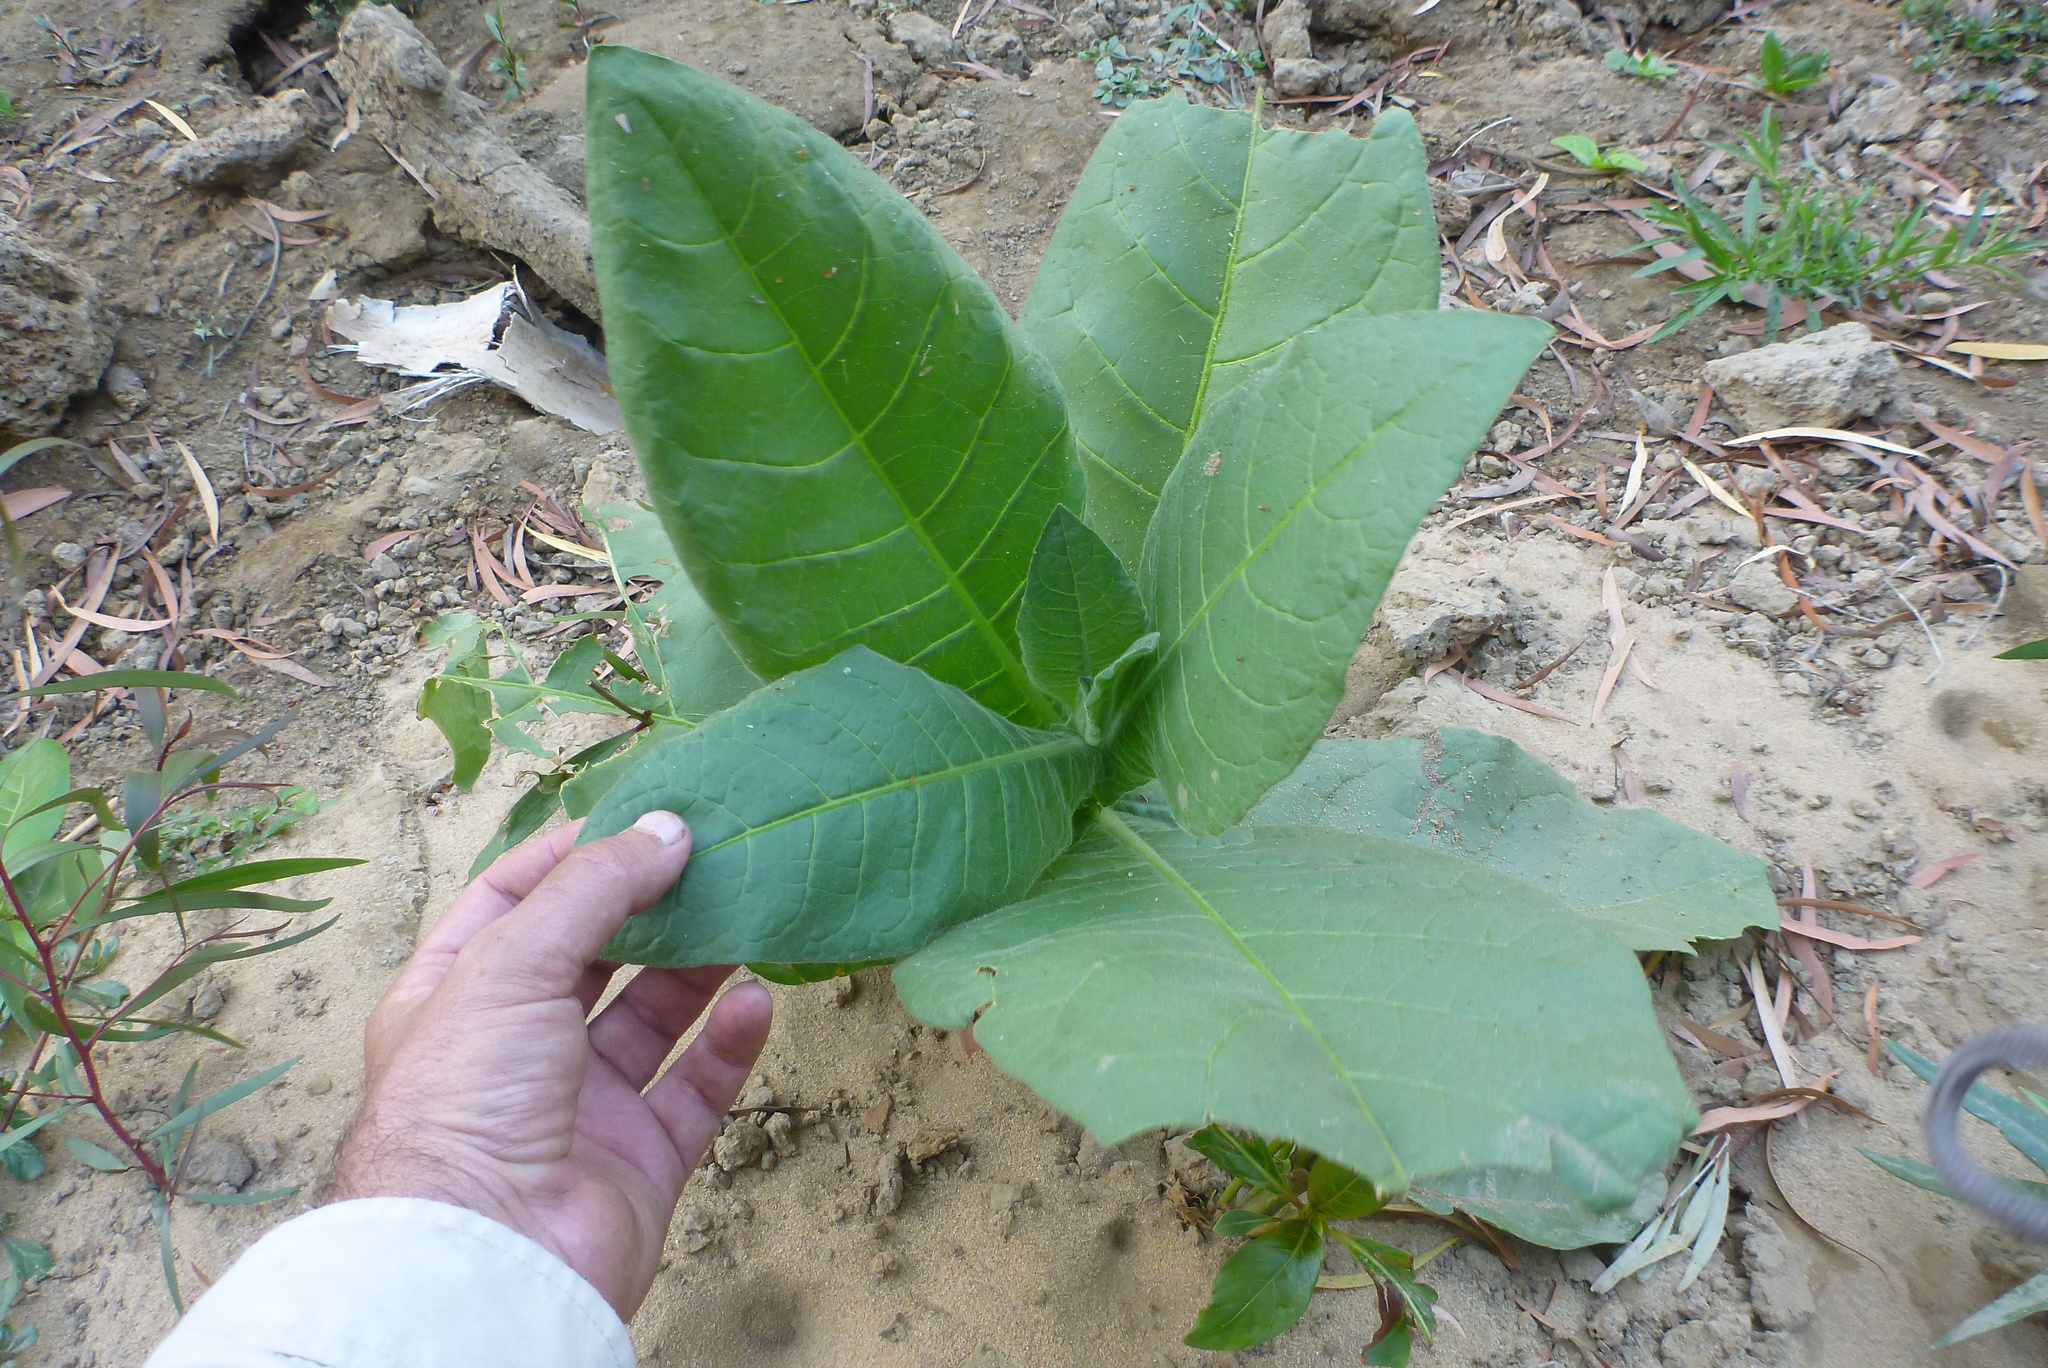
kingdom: Plantae
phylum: Tracheophyta
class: Magnoliopsida
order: Solanales
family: Solanaceae
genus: Nicotiana
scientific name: Nicotiana tabacum
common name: Tobacco
